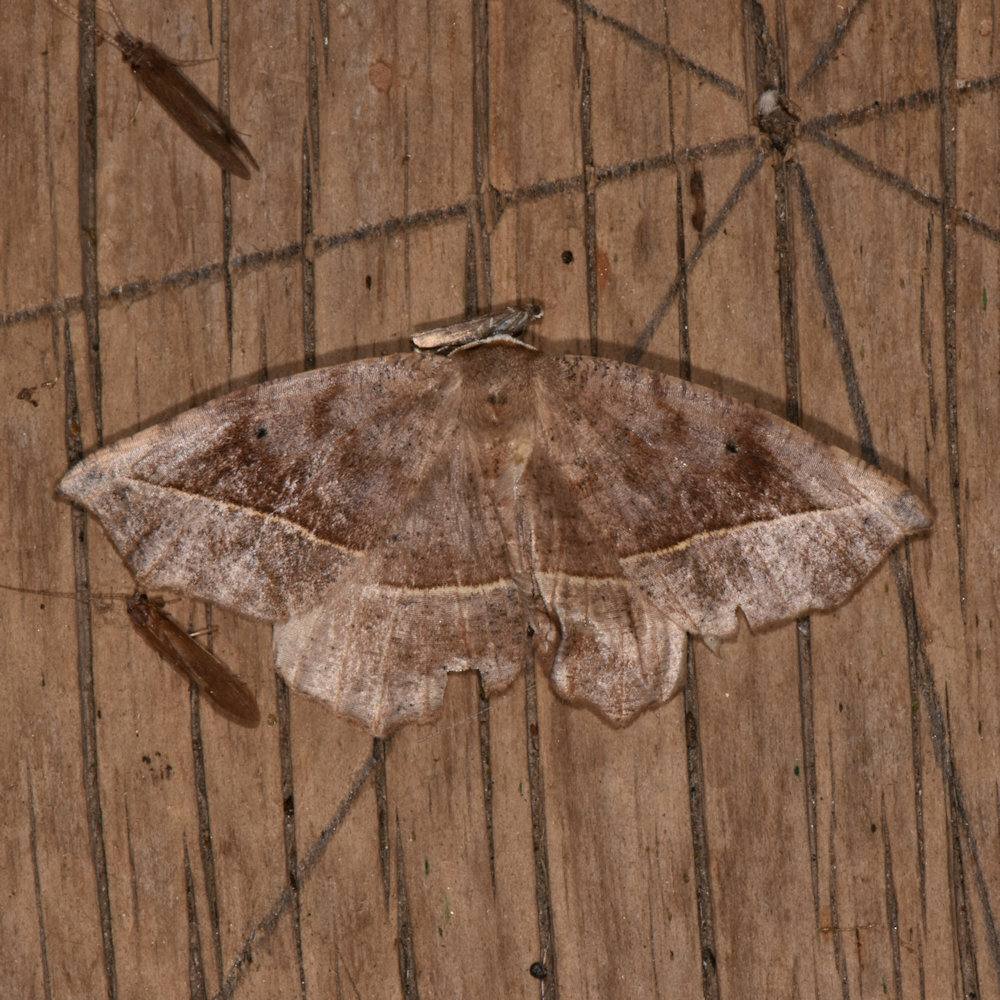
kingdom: Animalia
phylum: Arthropoda
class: Insecta
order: Lepidoptera
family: Geometridae
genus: Eutrapela
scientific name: Eutrapela clemataria
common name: Curved-toothed geometer
